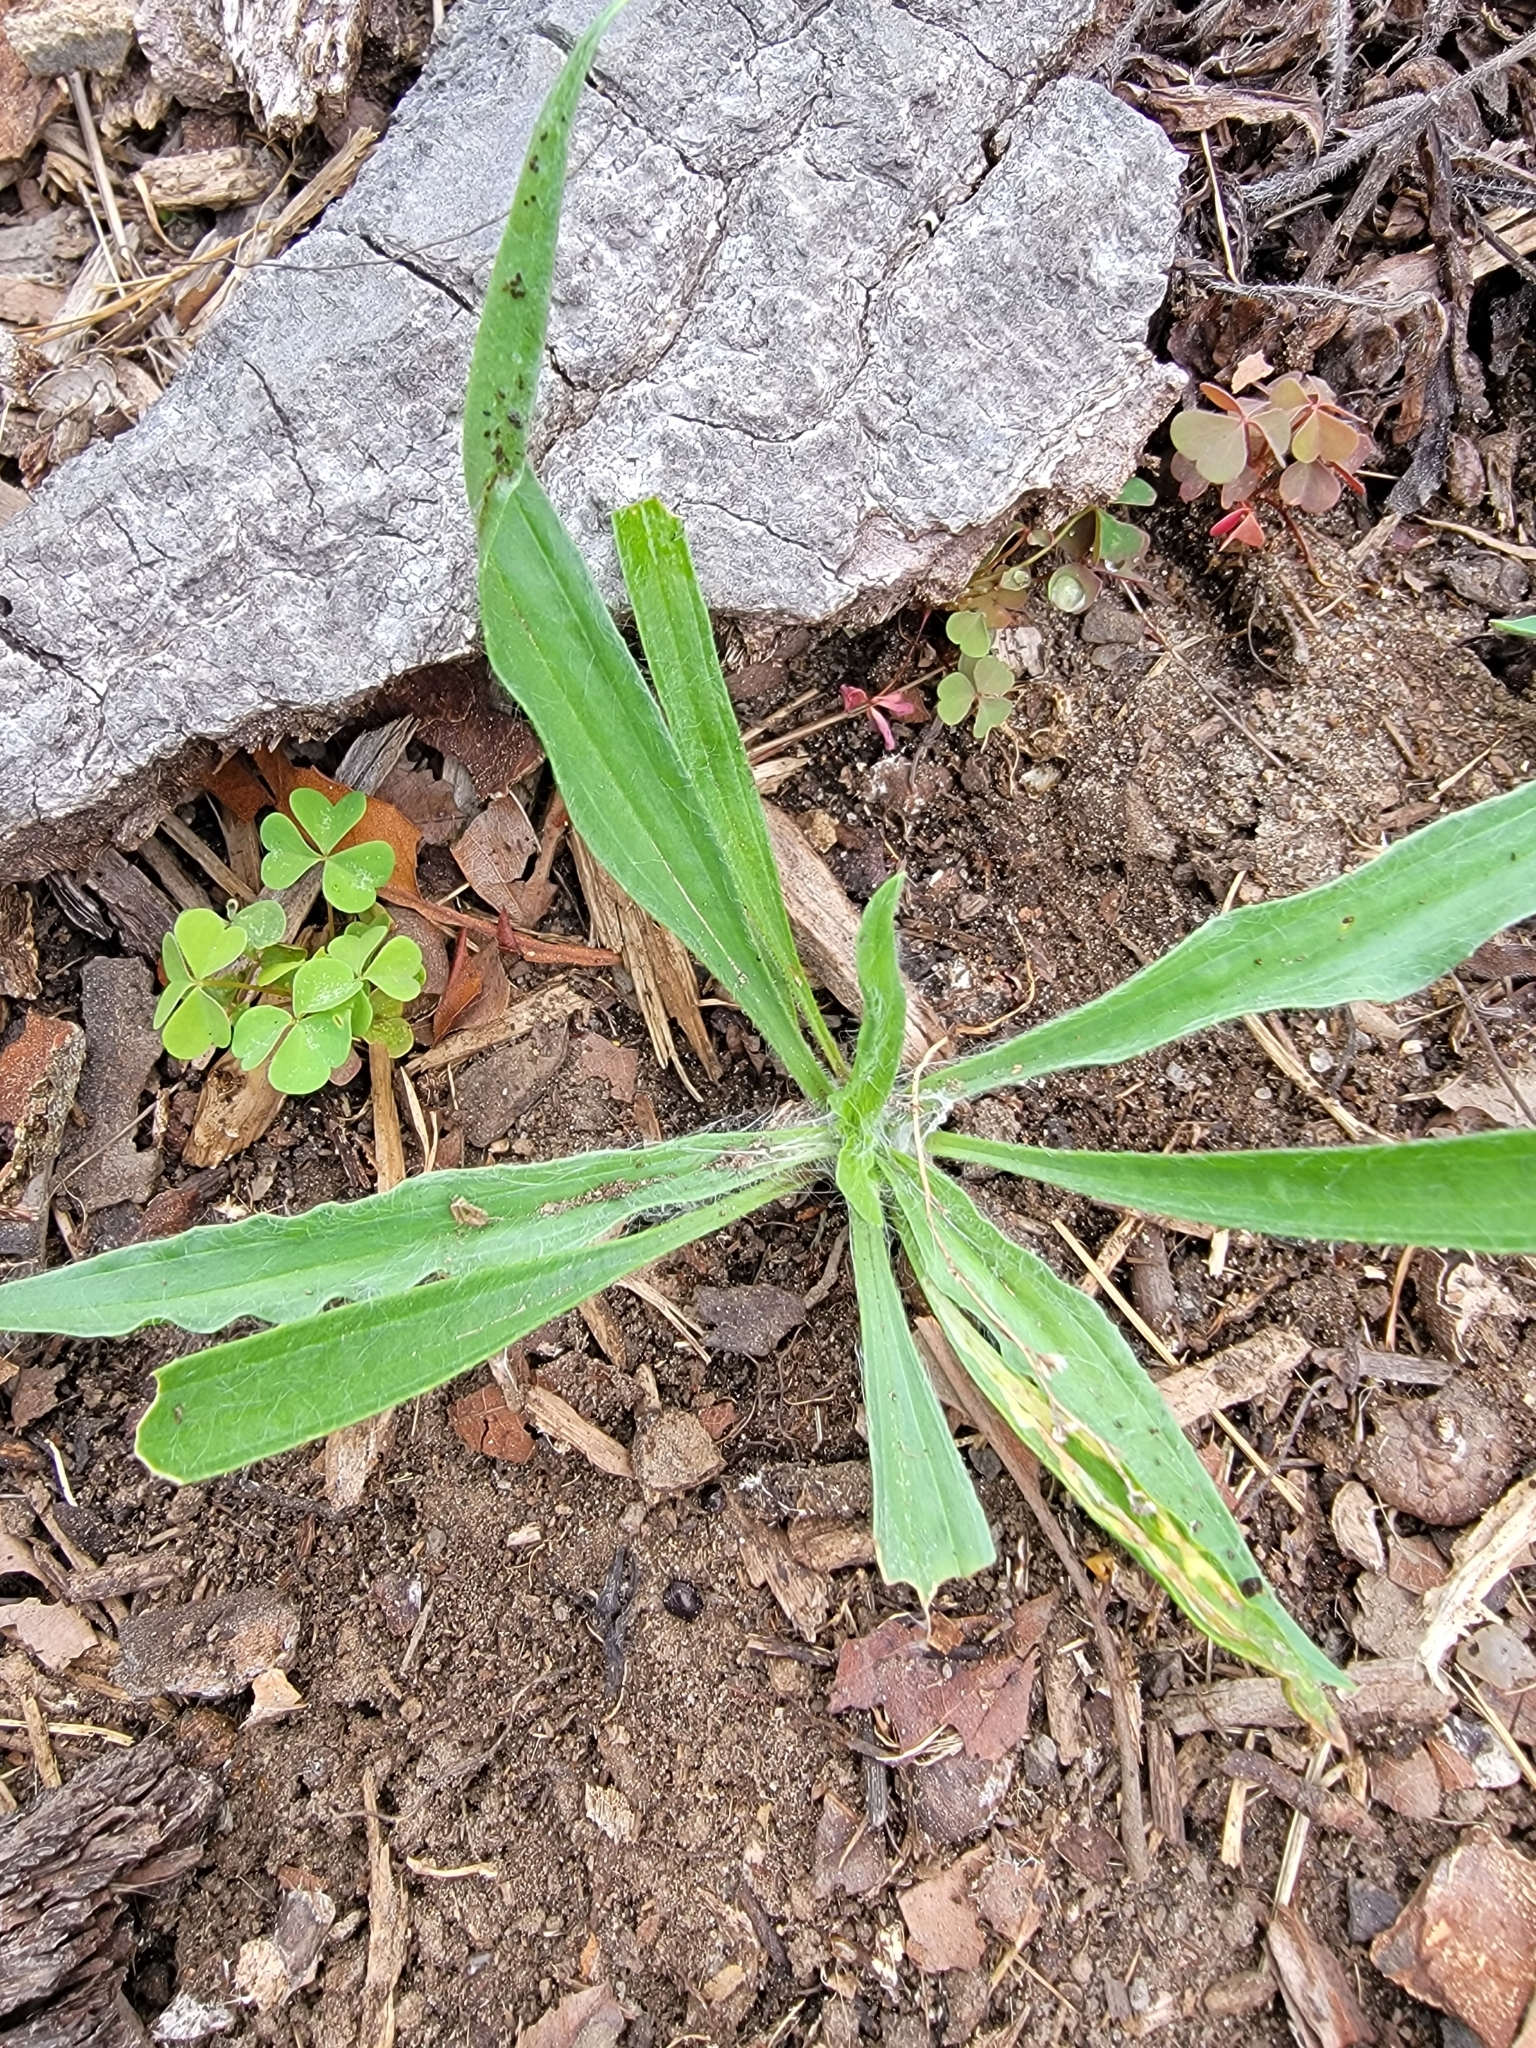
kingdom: Plantae
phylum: Tracheophyta
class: Magnoliopsida
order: Lamiales
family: Plantaginaceae
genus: Plantago
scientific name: Plantago lanceolata
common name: Ribwort plantain
